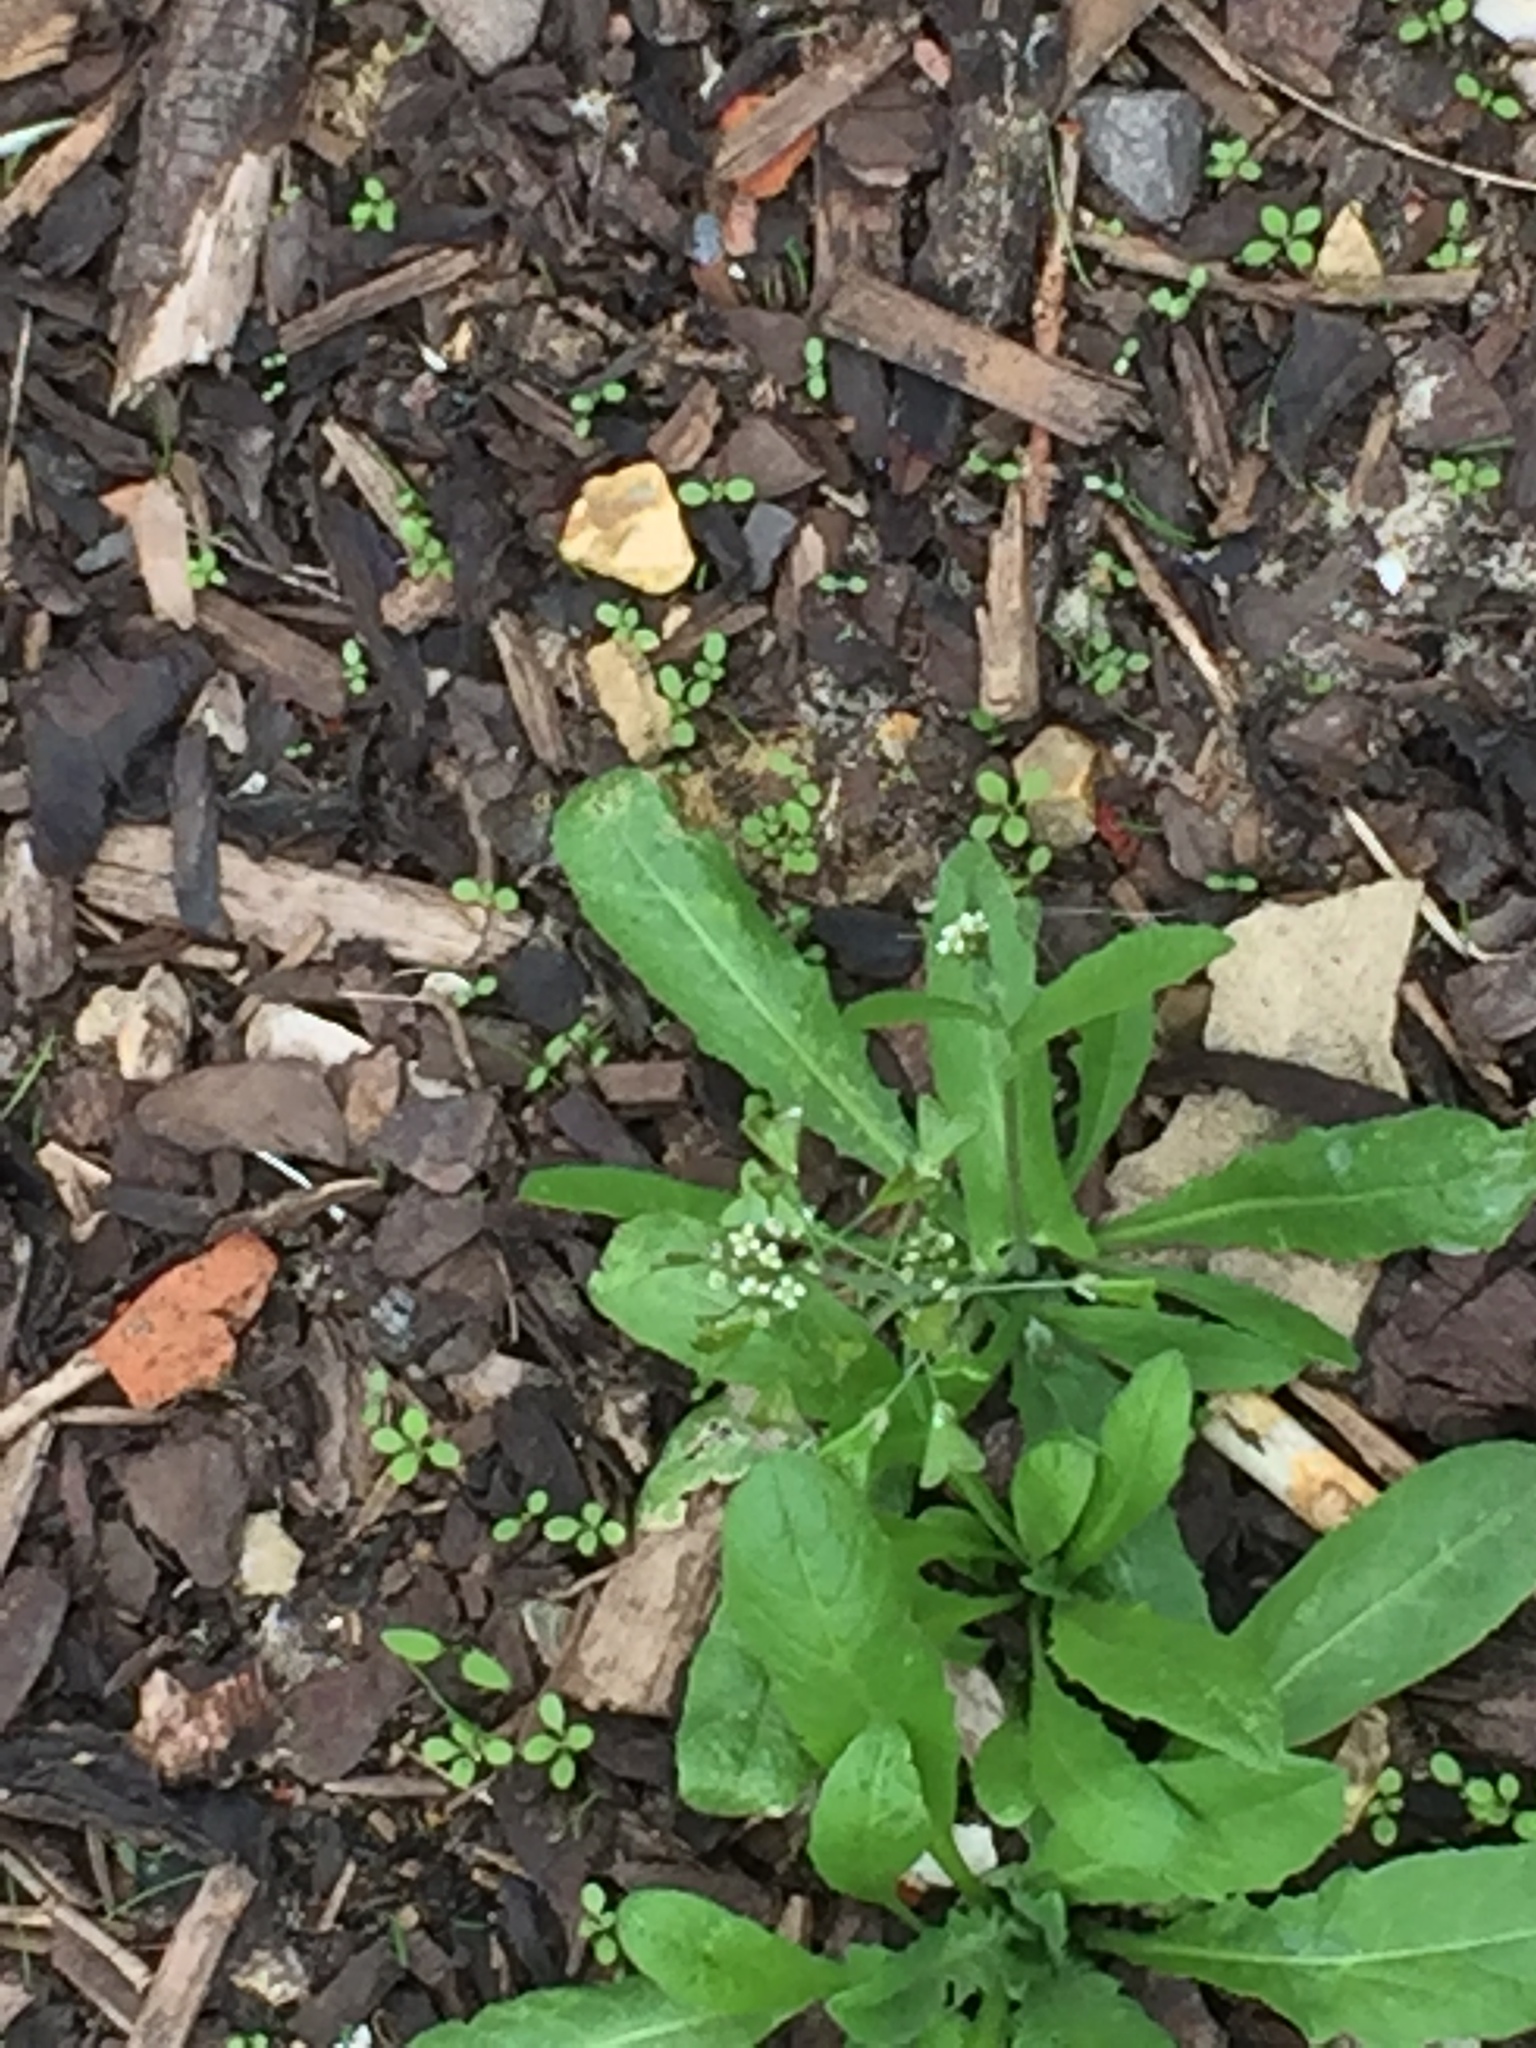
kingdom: Plantae
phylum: Tracheophyta
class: Magnoliopsida
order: Brassicales
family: Brassicaceae
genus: Capsella
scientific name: Capsella bursa-pastoris
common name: Shepherd's purse
